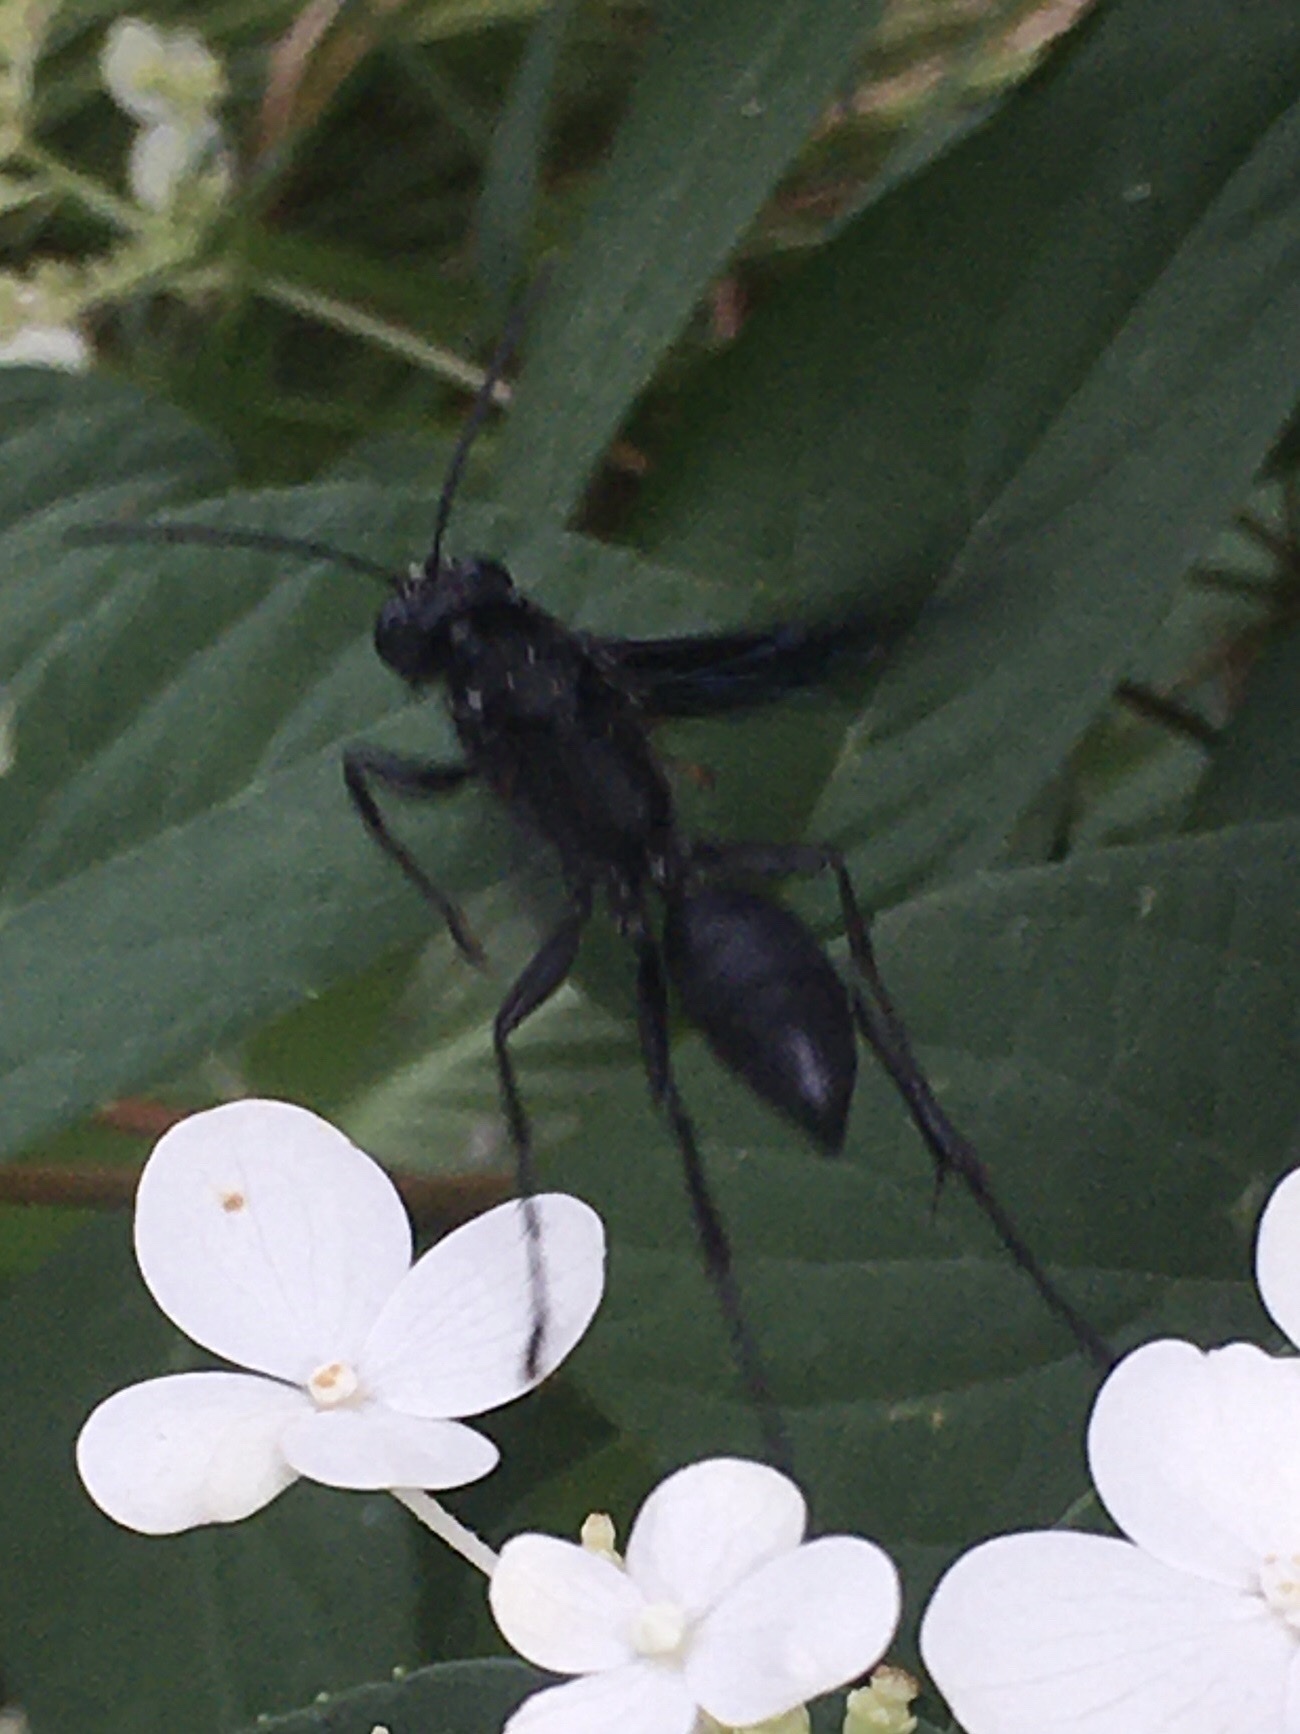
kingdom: Animalia
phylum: Arthropoda
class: Insecta
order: Hymenoptera
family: Sphecidae
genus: Sphex
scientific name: Sphex pensylvanicus
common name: Great black digger wasp
